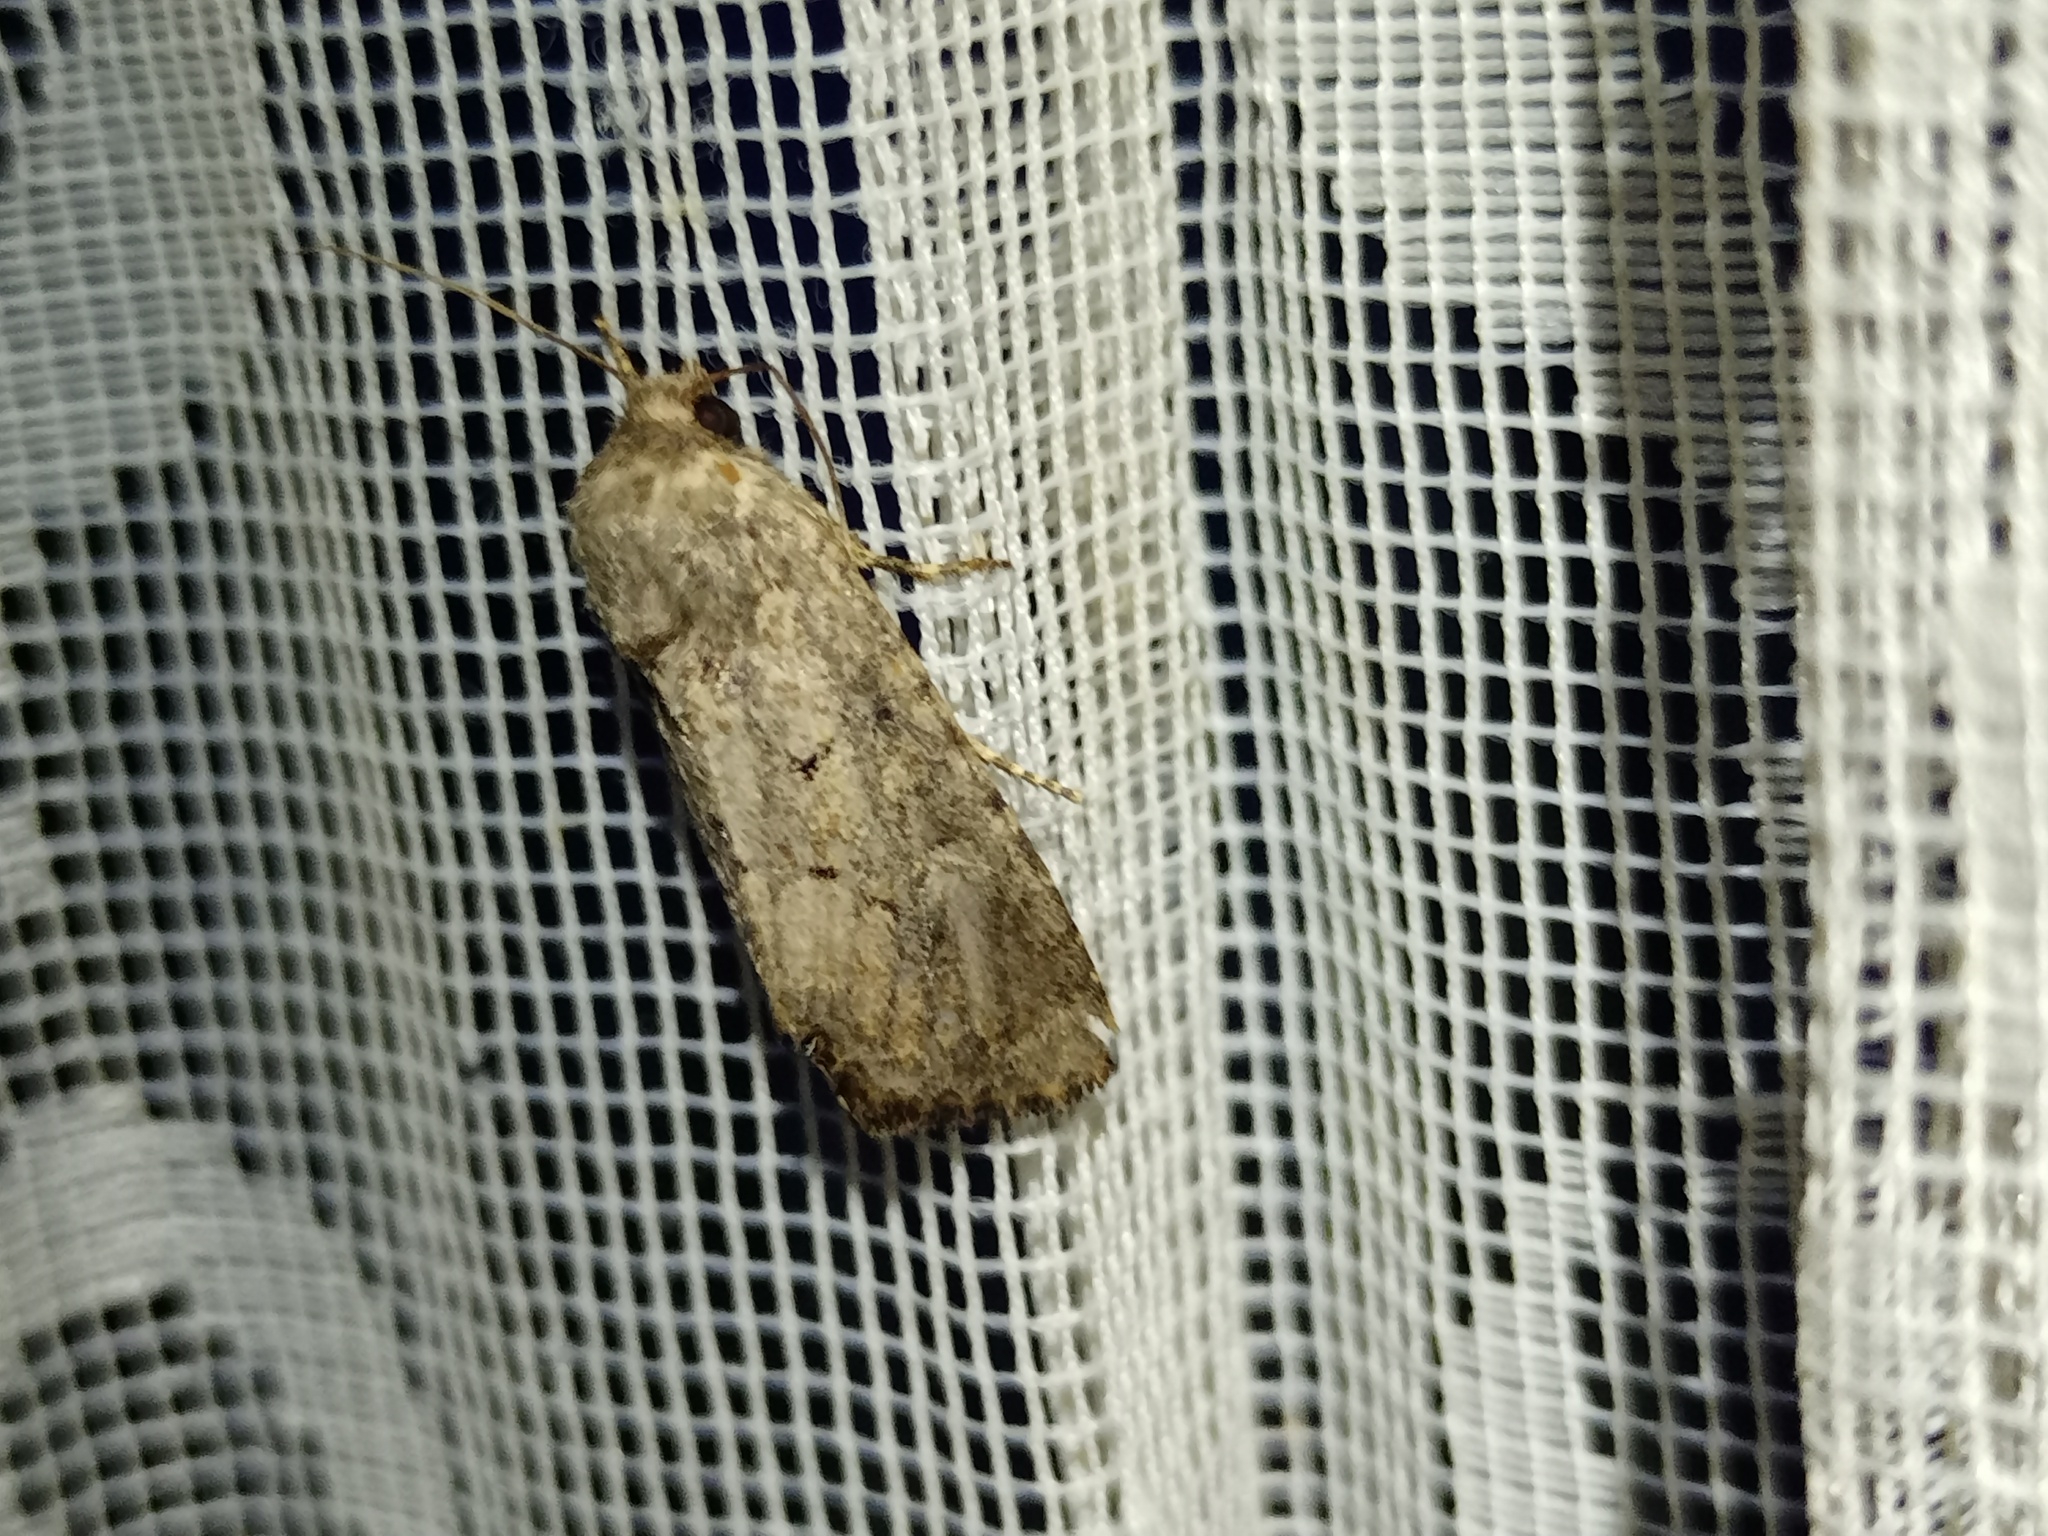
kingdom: Animalia
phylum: Arthropoda
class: Insecta
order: Lepidoptera
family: Noctuidae
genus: Luperina
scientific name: Luperina testacea
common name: Flounced rustic
